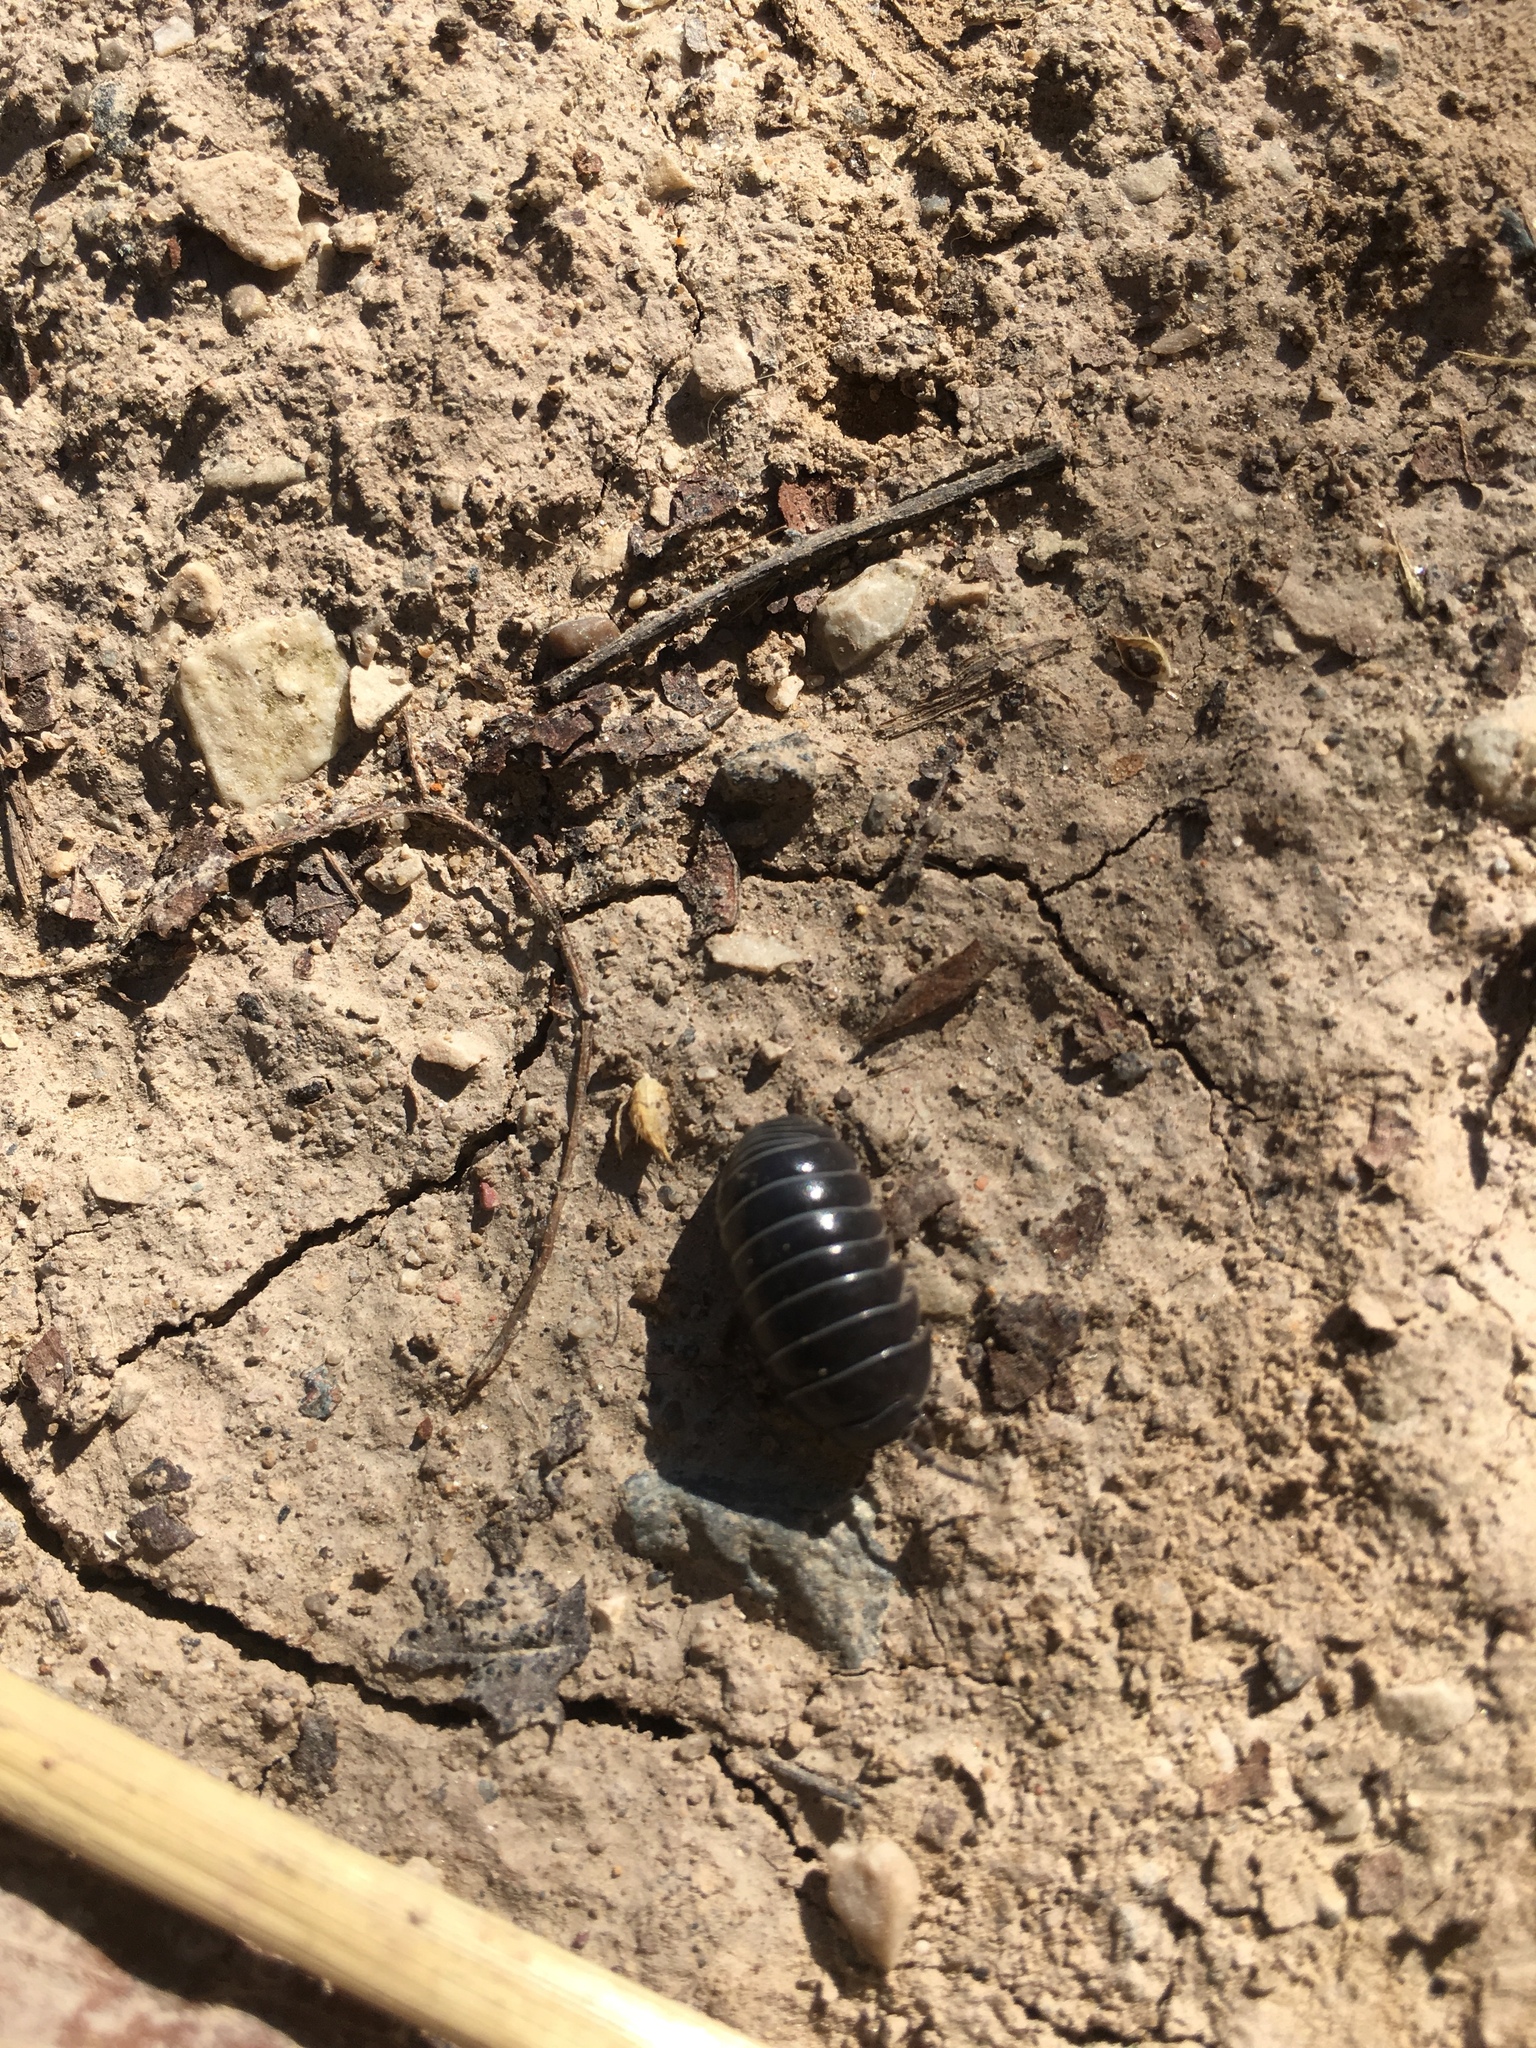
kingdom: Animalia
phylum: Arthropoda
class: Malacostraca
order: Isopoda
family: Armadillidiidae
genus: Armadillidium
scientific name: Armadillidium vulgare
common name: Common pill woodlouse
